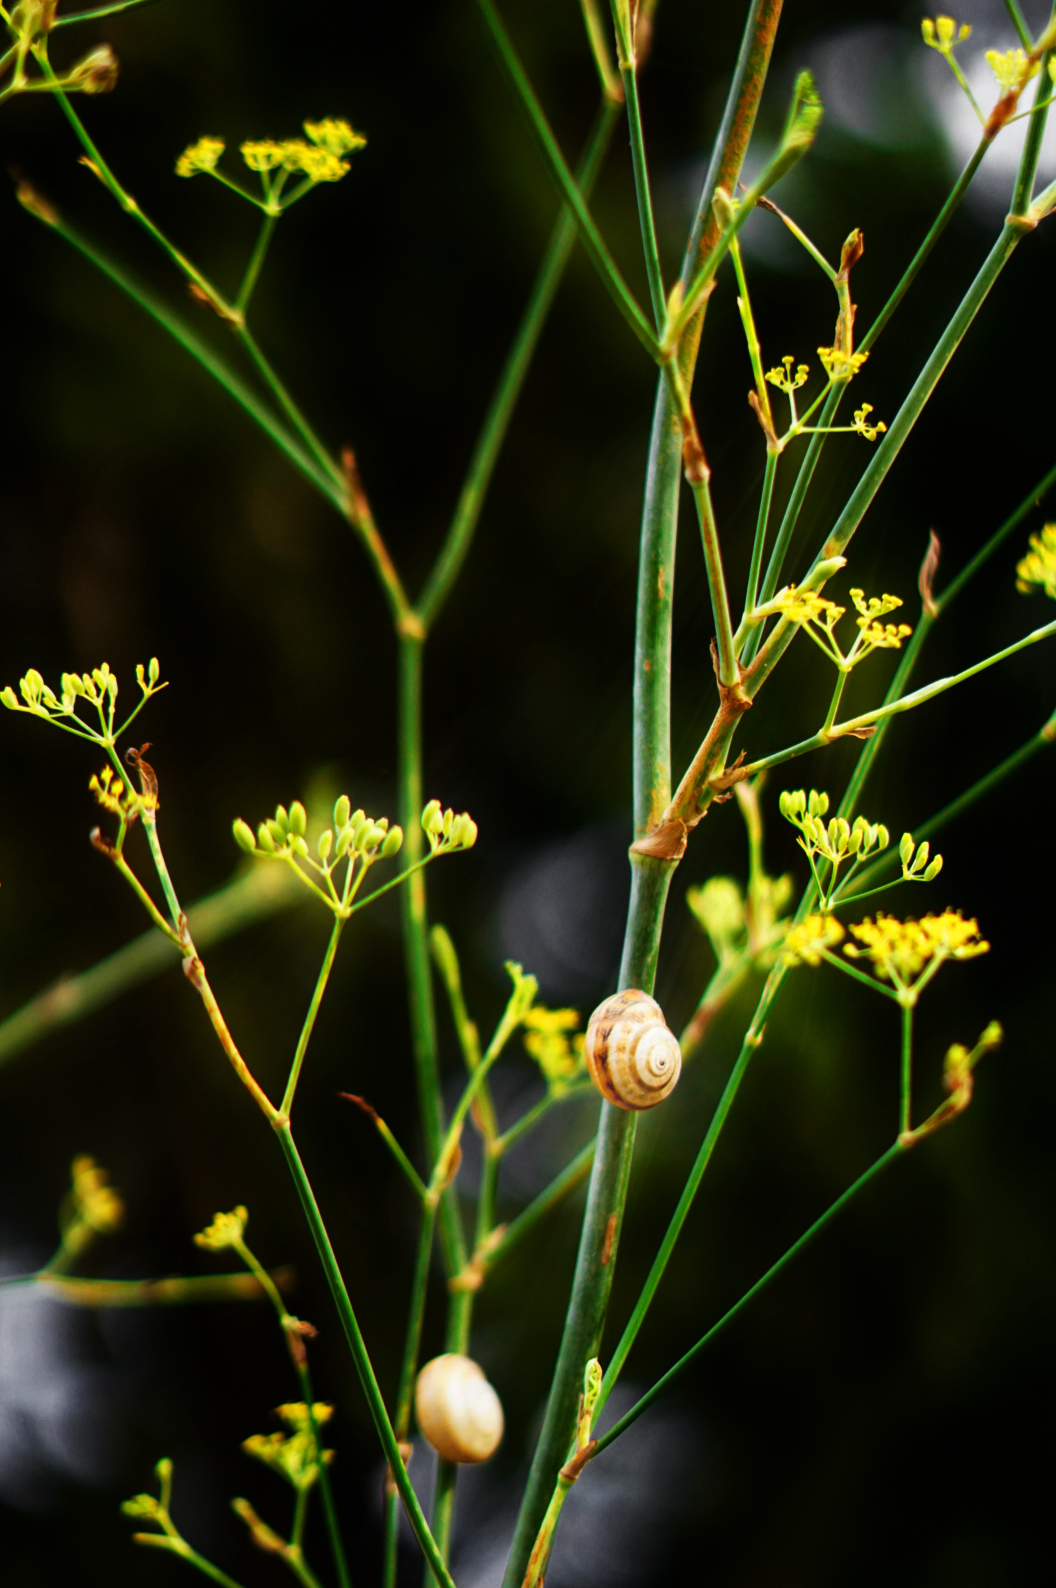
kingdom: Animalia
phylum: Mollusca
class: Gastropoda
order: Stylommatophora
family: Helicidae
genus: Theba
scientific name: Theba pisana
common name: White snail
